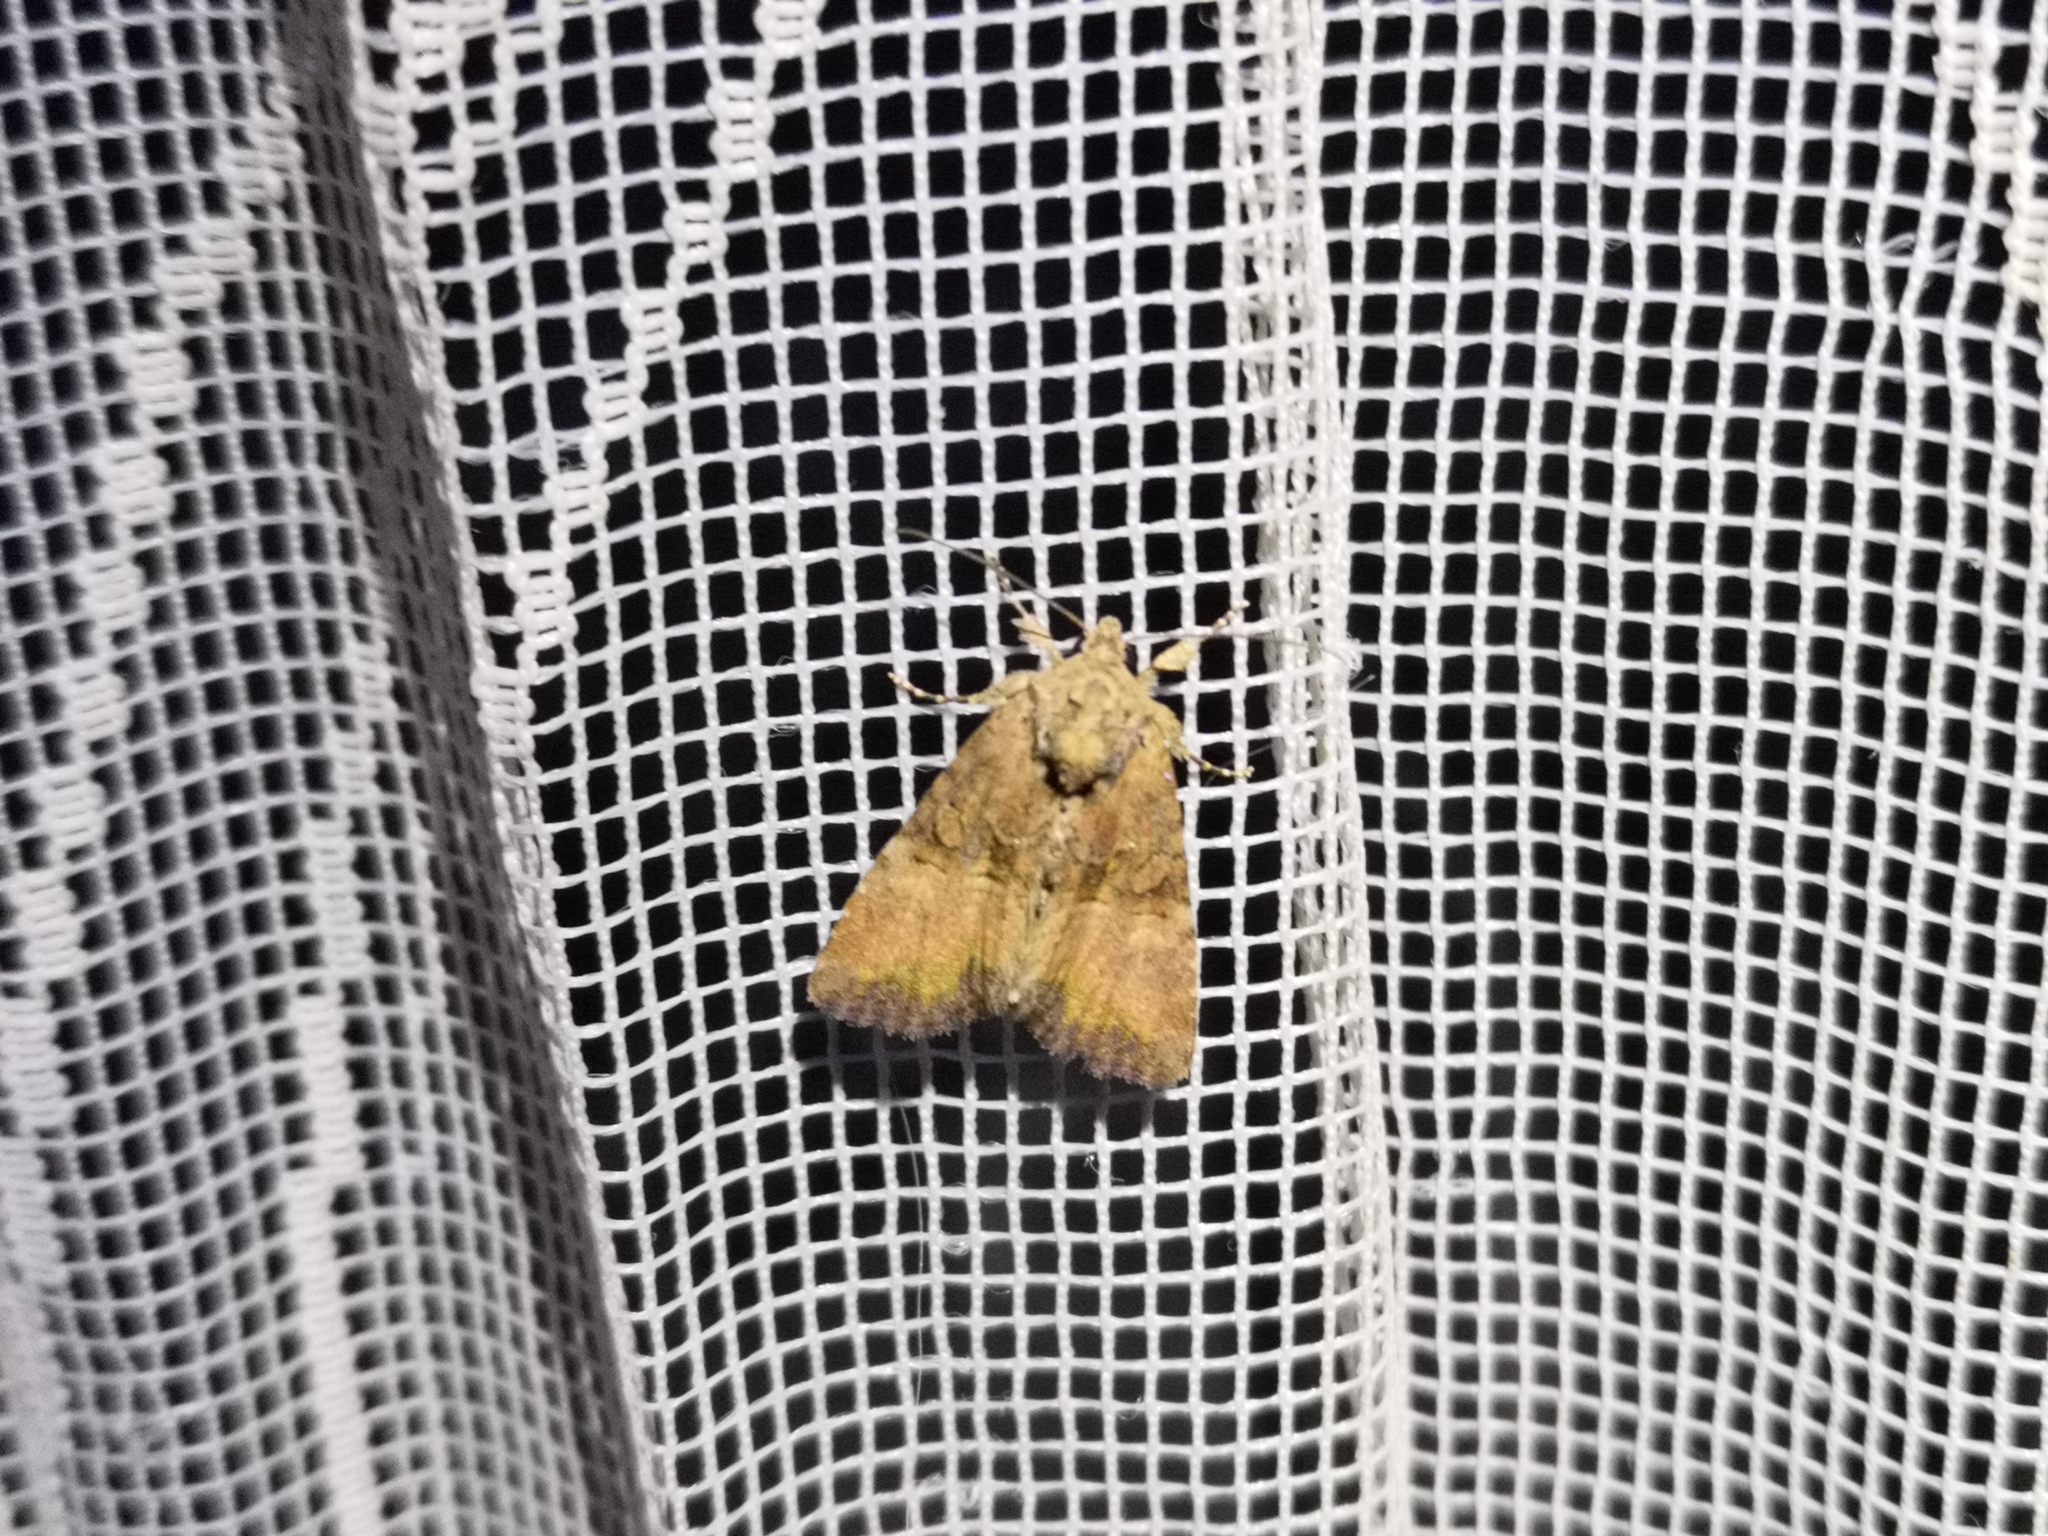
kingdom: Animalia
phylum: Arthropoda
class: Insecta
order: Lepidoptera
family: Noctuidae
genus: Mesoligia
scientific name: Mesoligia furuncula
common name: Cloaked minor
